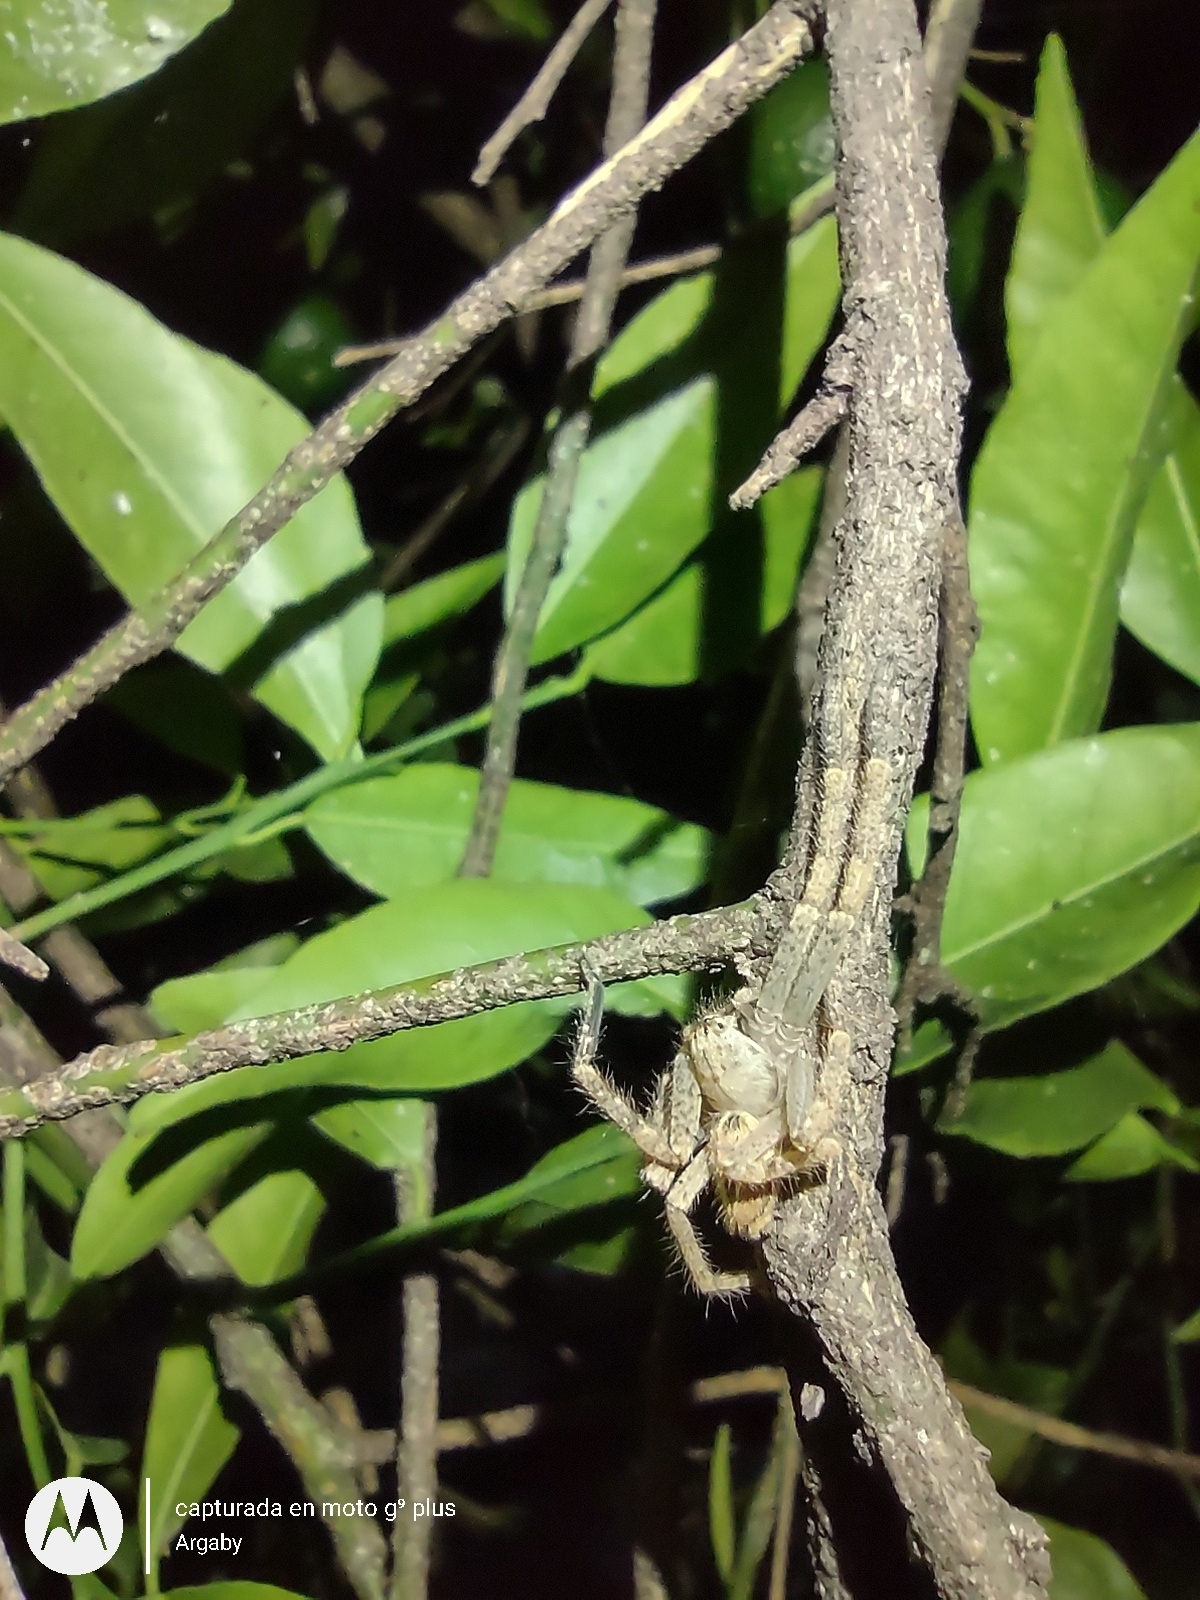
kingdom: Animalia
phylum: Arthropoda
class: Arachnida
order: Araneae
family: Sparassidae
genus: Polybetes
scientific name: Polybetes rapidus
